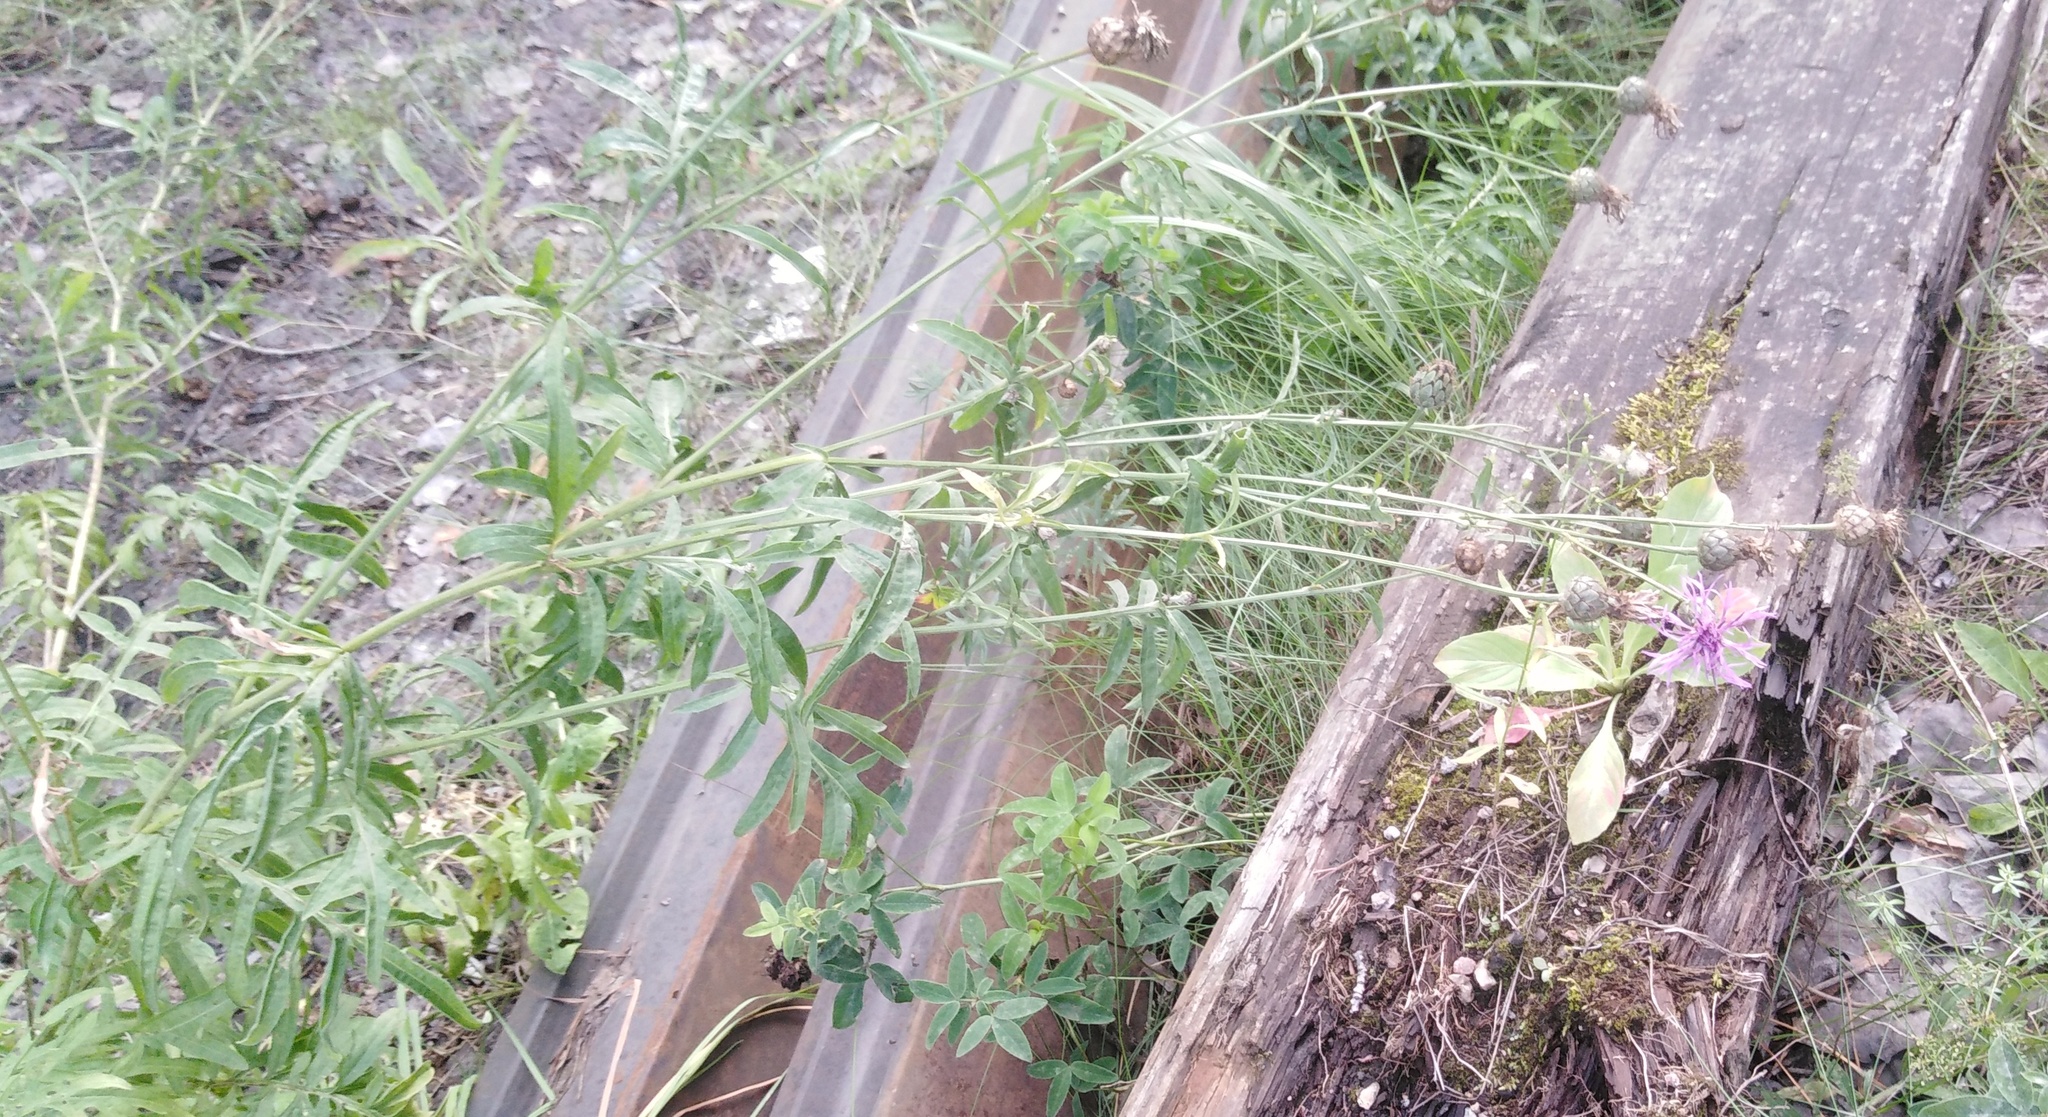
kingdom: Plantae
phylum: Tracheophyta
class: Magnoliopsida
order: Asterales
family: Asteraceae
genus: Centaurea
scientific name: Centaurea scabiosa
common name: Greater knapweed
